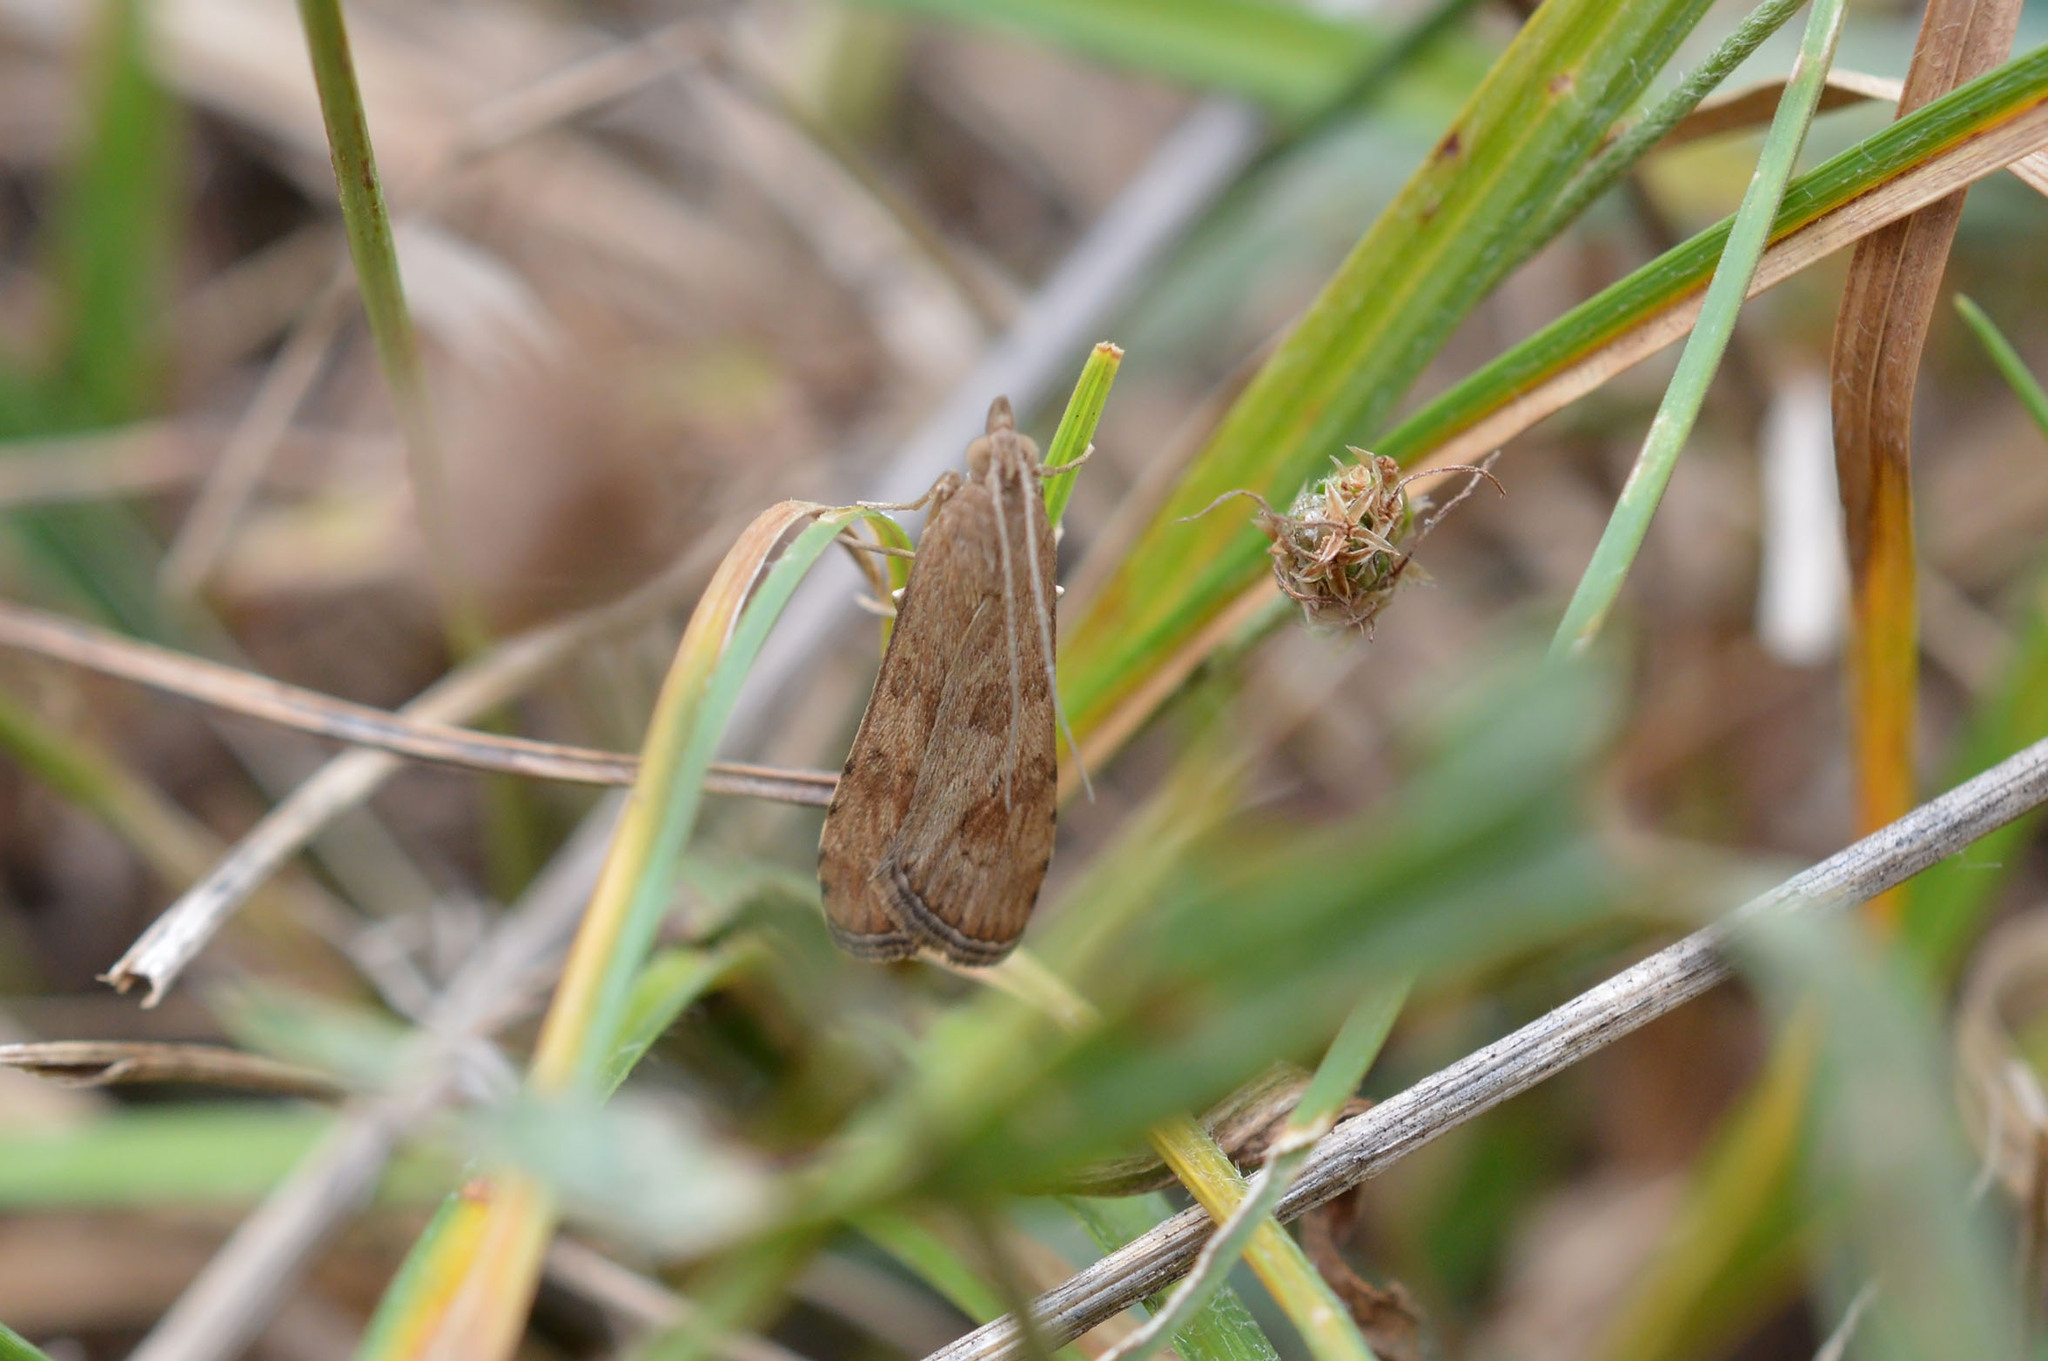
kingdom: Animalia
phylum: Arthropoda
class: Insecta
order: Lepidoptera
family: Crambidae
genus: Nomophila
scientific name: Nomophila noctuella
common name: Rush veneer
